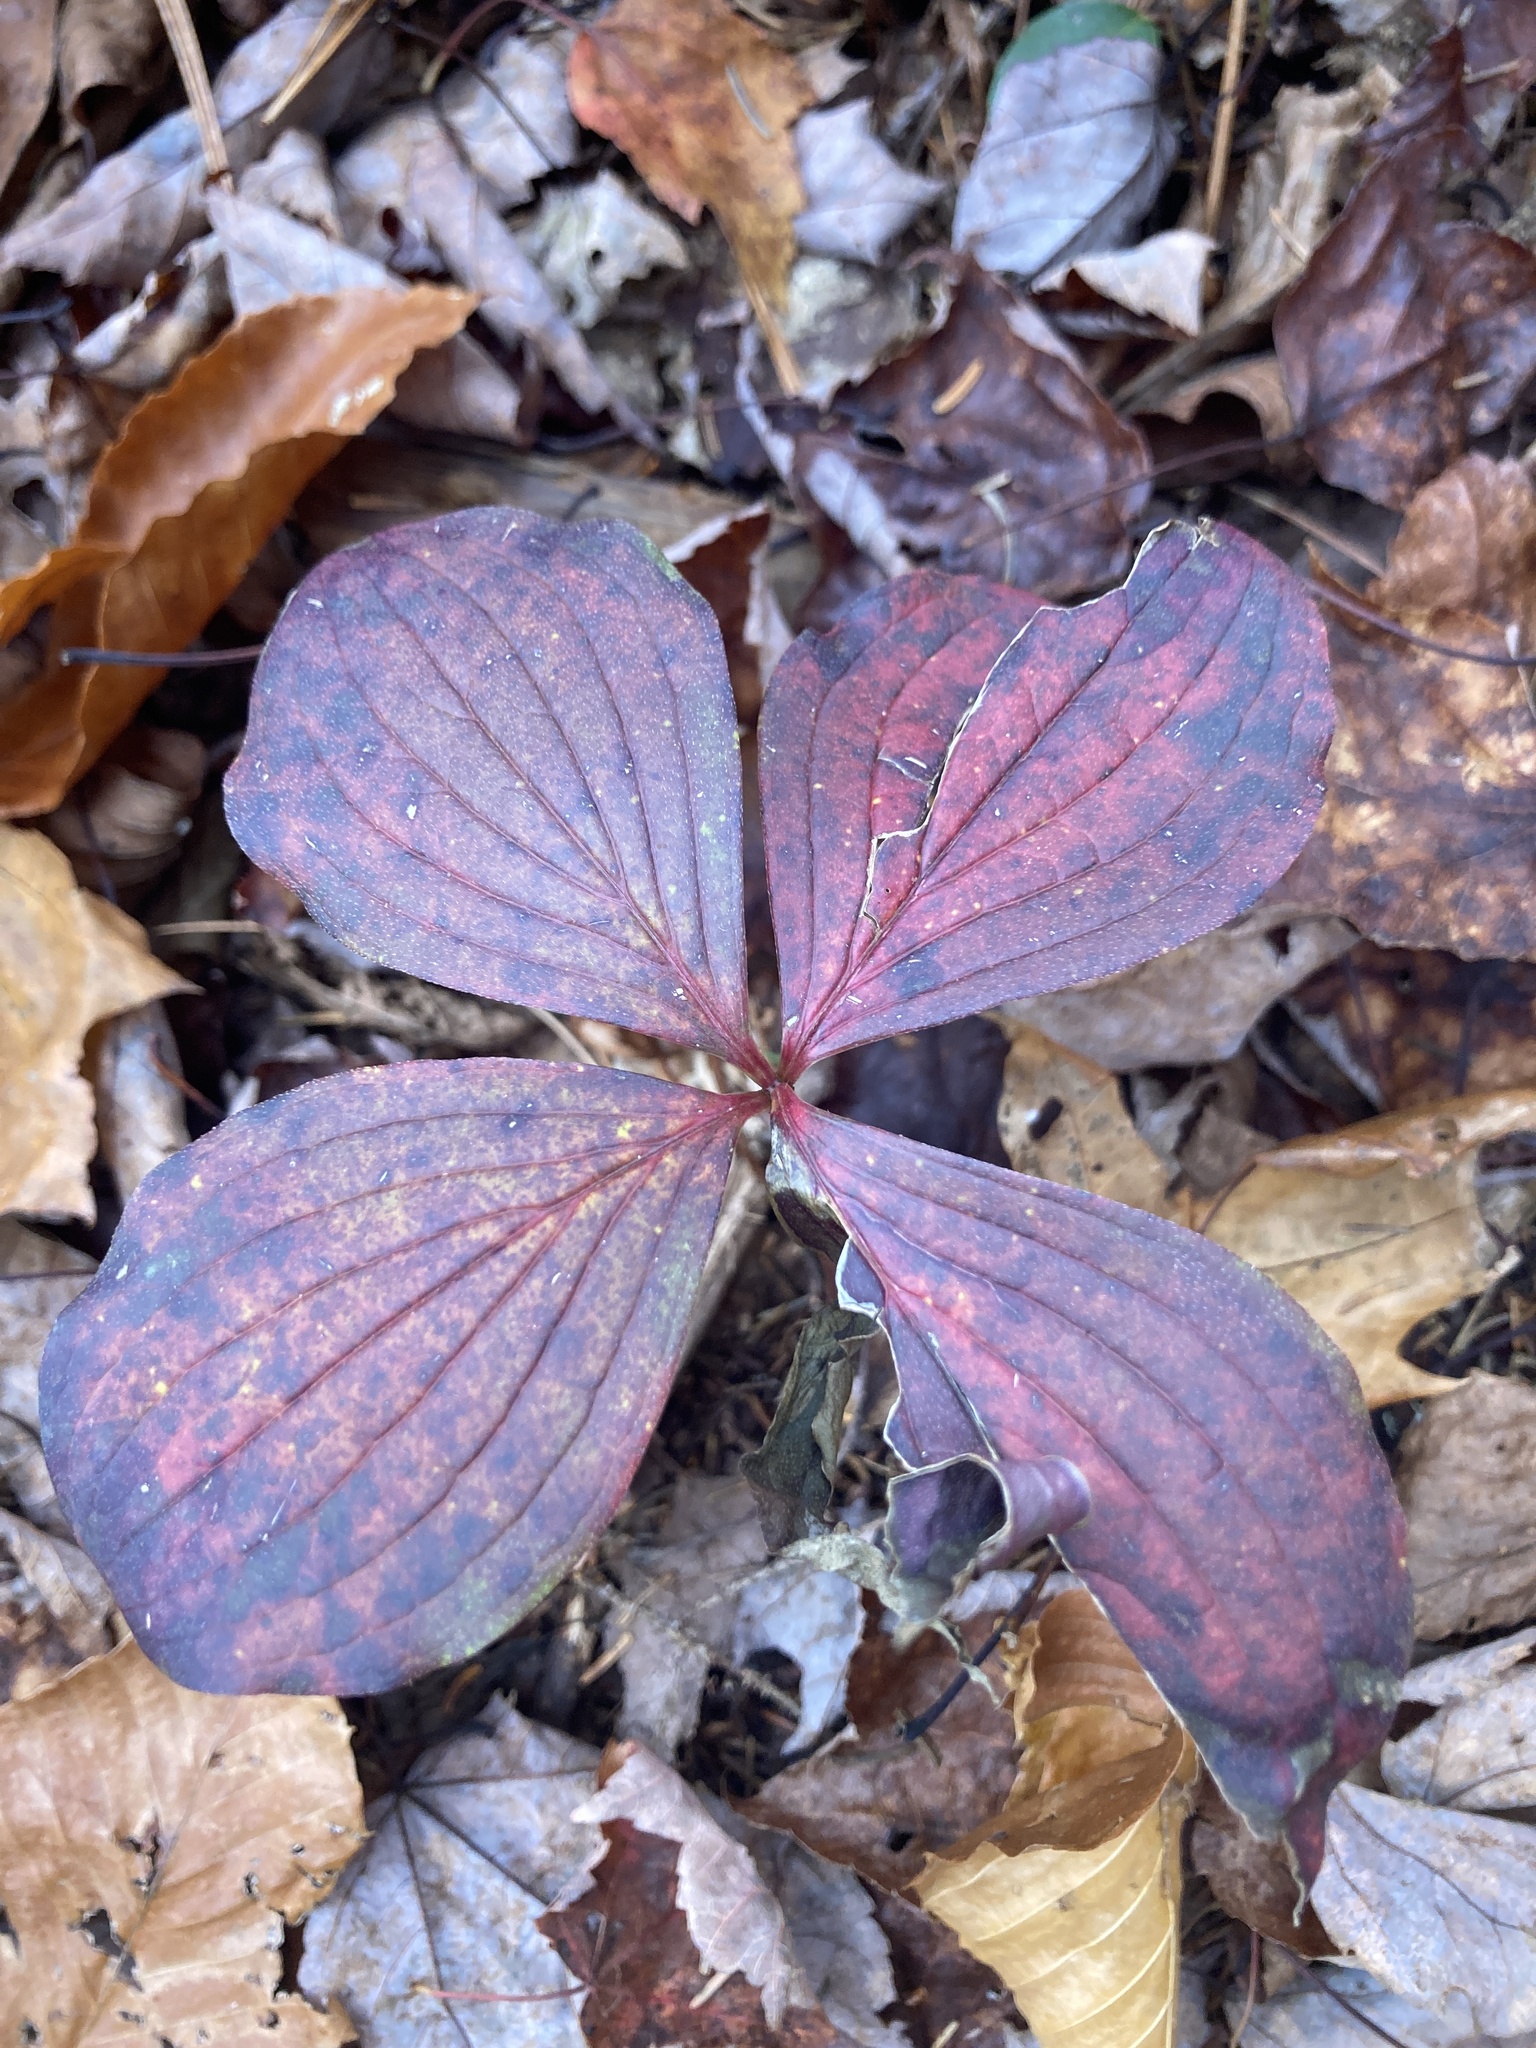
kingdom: Plantae
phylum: Tracheophyta
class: Magnoliopsida
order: Cornales
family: Cornaceae
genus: Cornus
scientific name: Cornus canadensis
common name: Creeping dogwood
